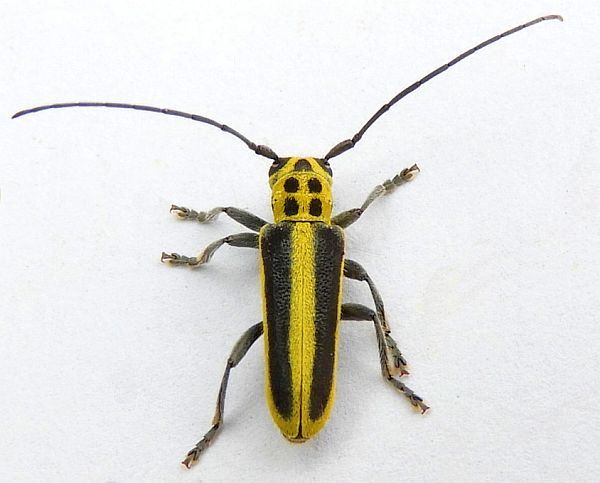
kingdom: Animalia
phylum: Arthropoda
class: Insecta
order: Coleoptera
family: Cerambycidae
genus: Saperda
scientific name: Saperda puncticollis
